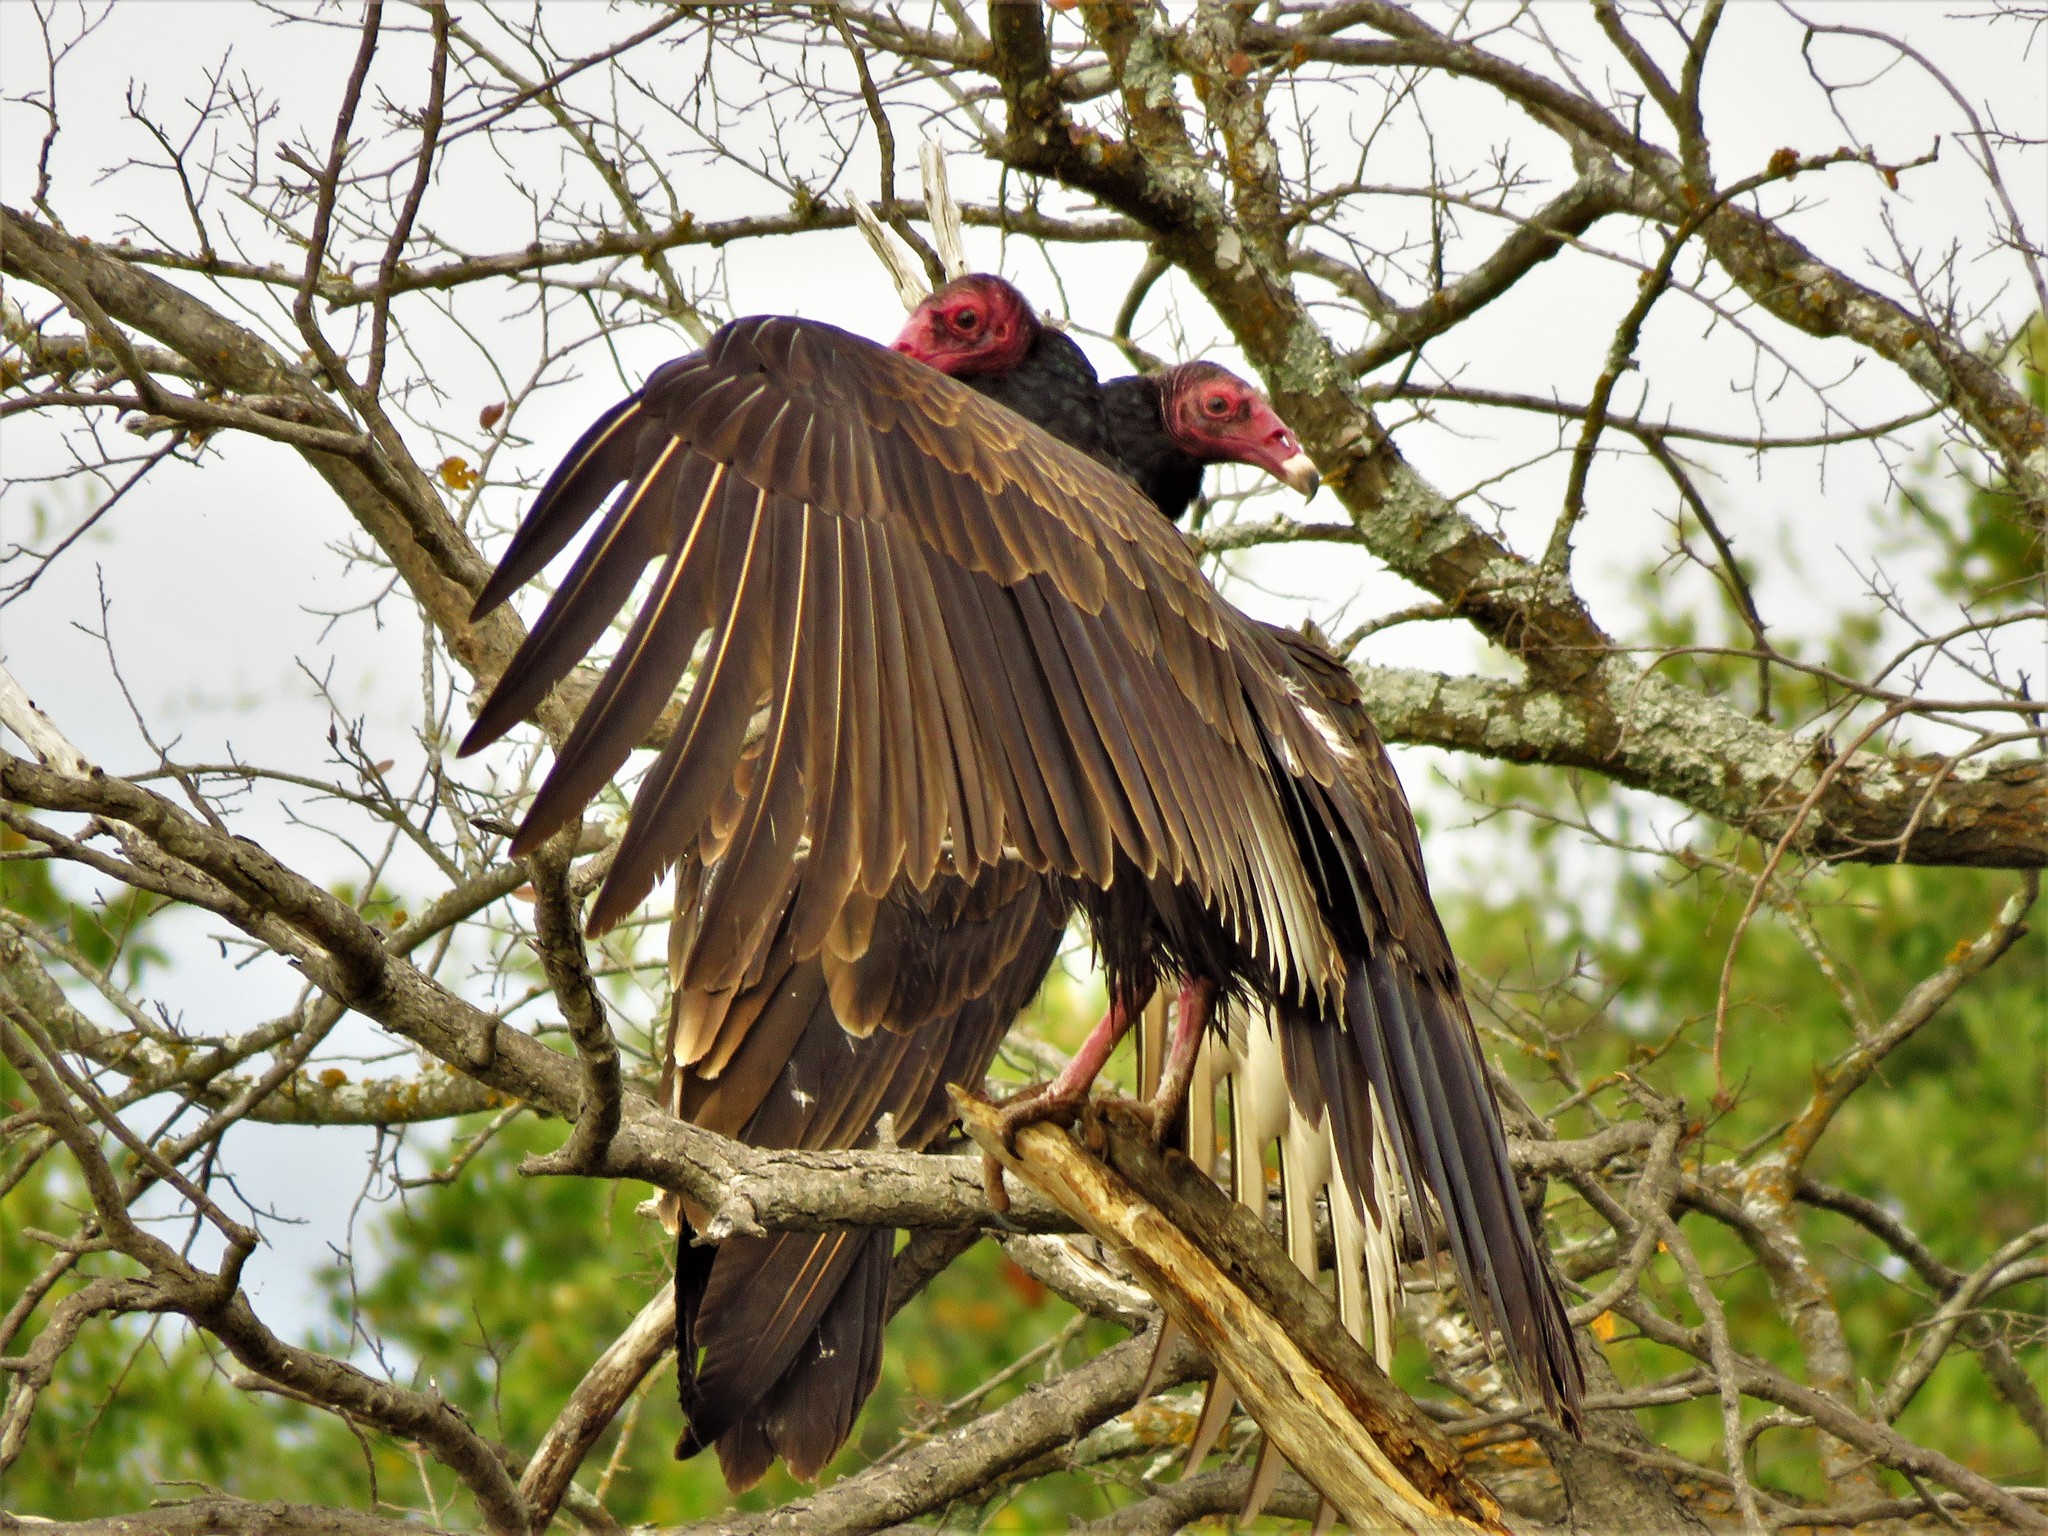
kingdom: Animalia
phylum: Chordata
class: Aves
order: Accipitriformes
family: Cathartidae
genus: Cathartes
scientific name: Cathartes aura
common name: Turkey vulture
